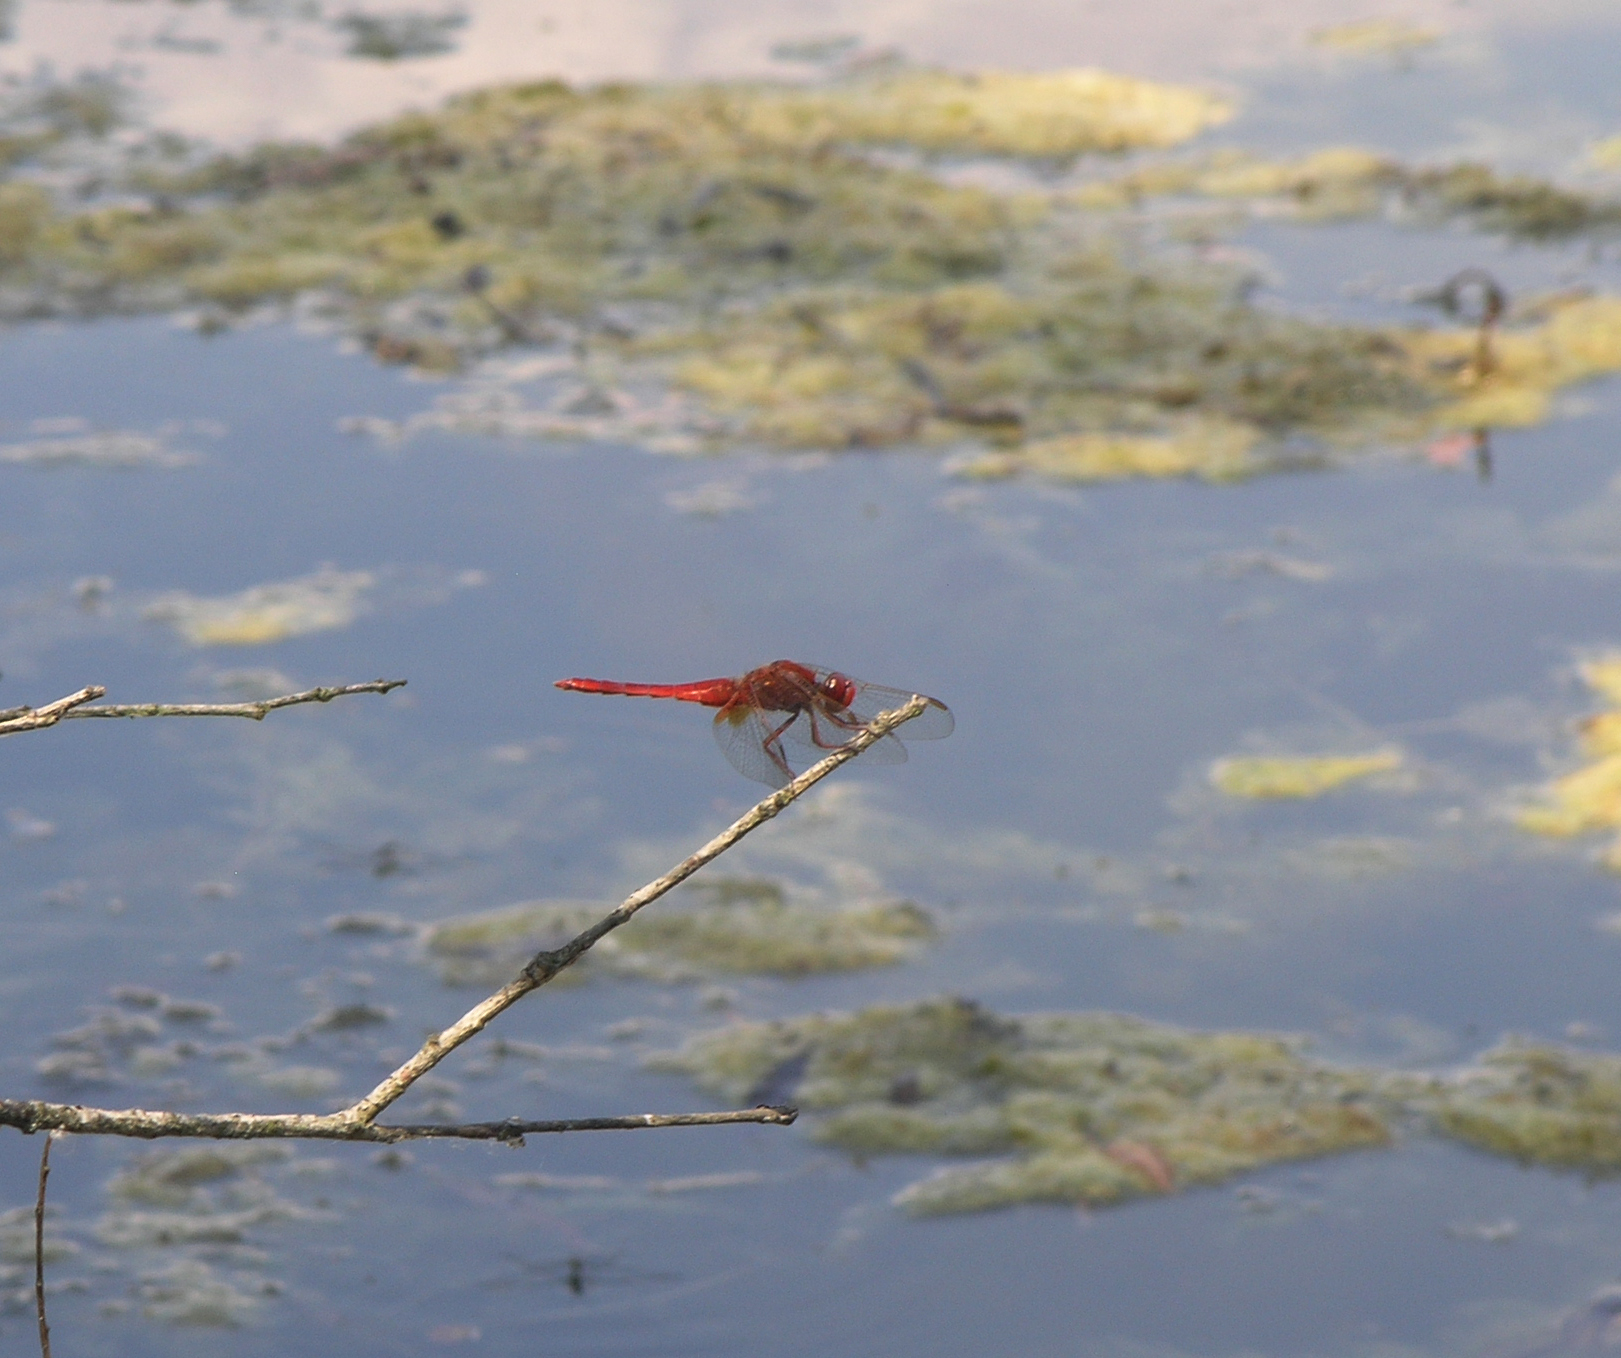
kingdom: Animalia
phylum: Arthropoda
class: Insecta
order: Odonata
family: Libellulidae
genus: Crocothemis
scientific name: Crocothemis erythraea
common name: Scarlet dragonfly
